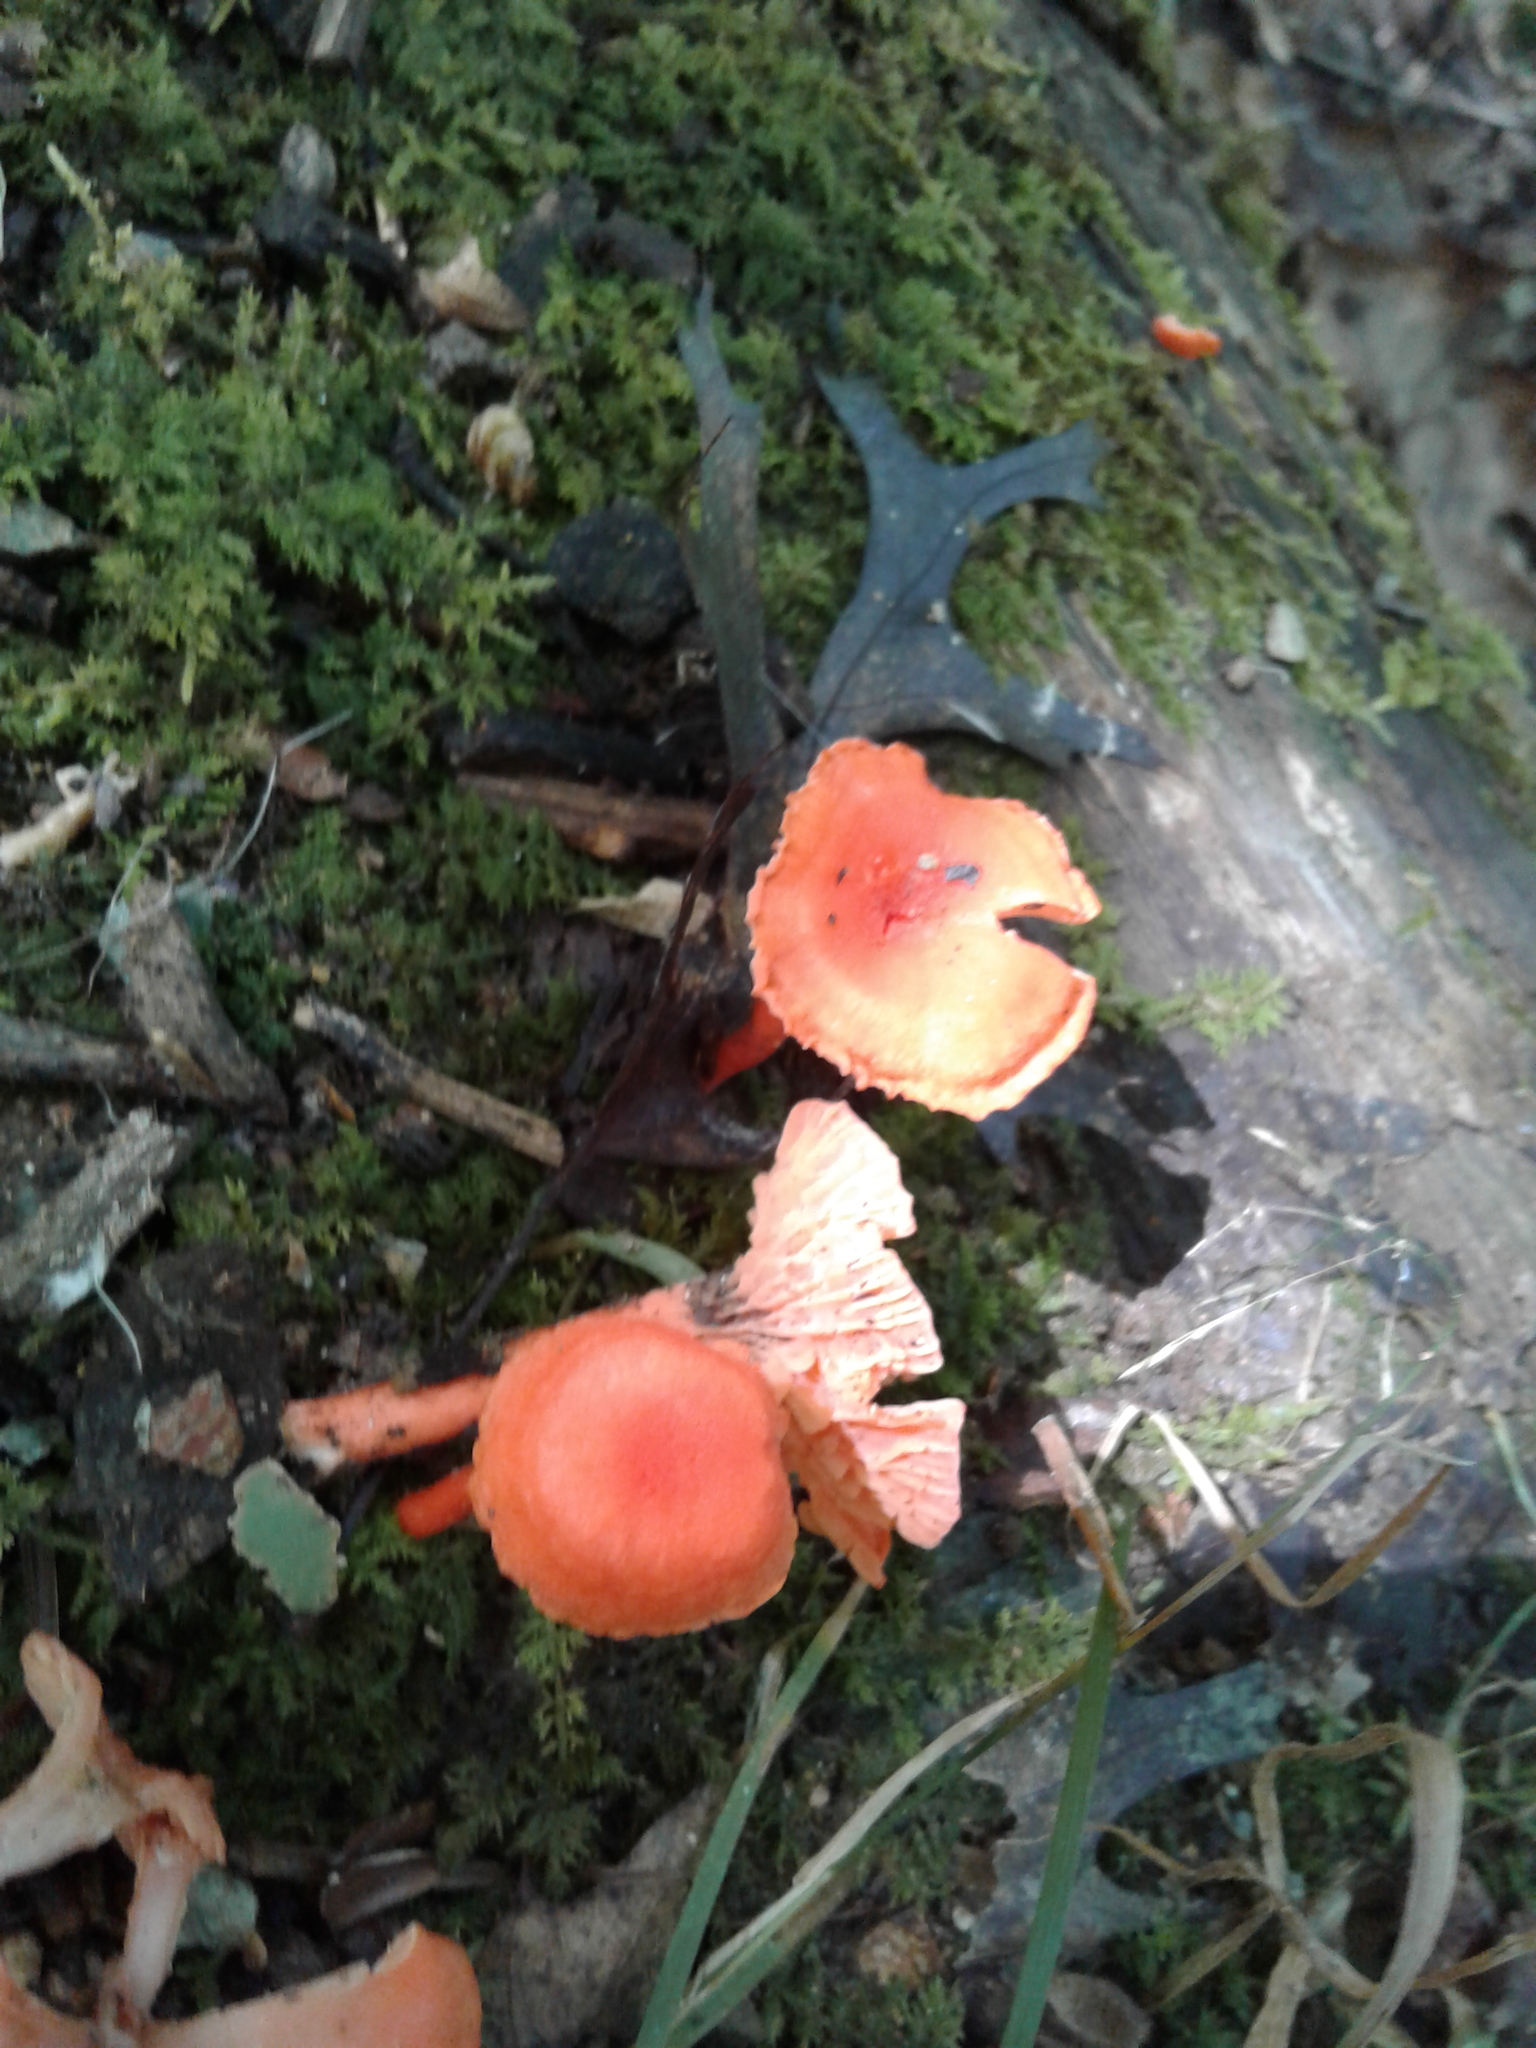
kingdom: Fungi
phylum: Basidiomycota
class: Agaricomycetes
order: Cantharellales
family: Hydnaceae
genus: Cantharellus
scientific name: Cantharellus cinnabarinus
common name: Cinnabar chanterelle
